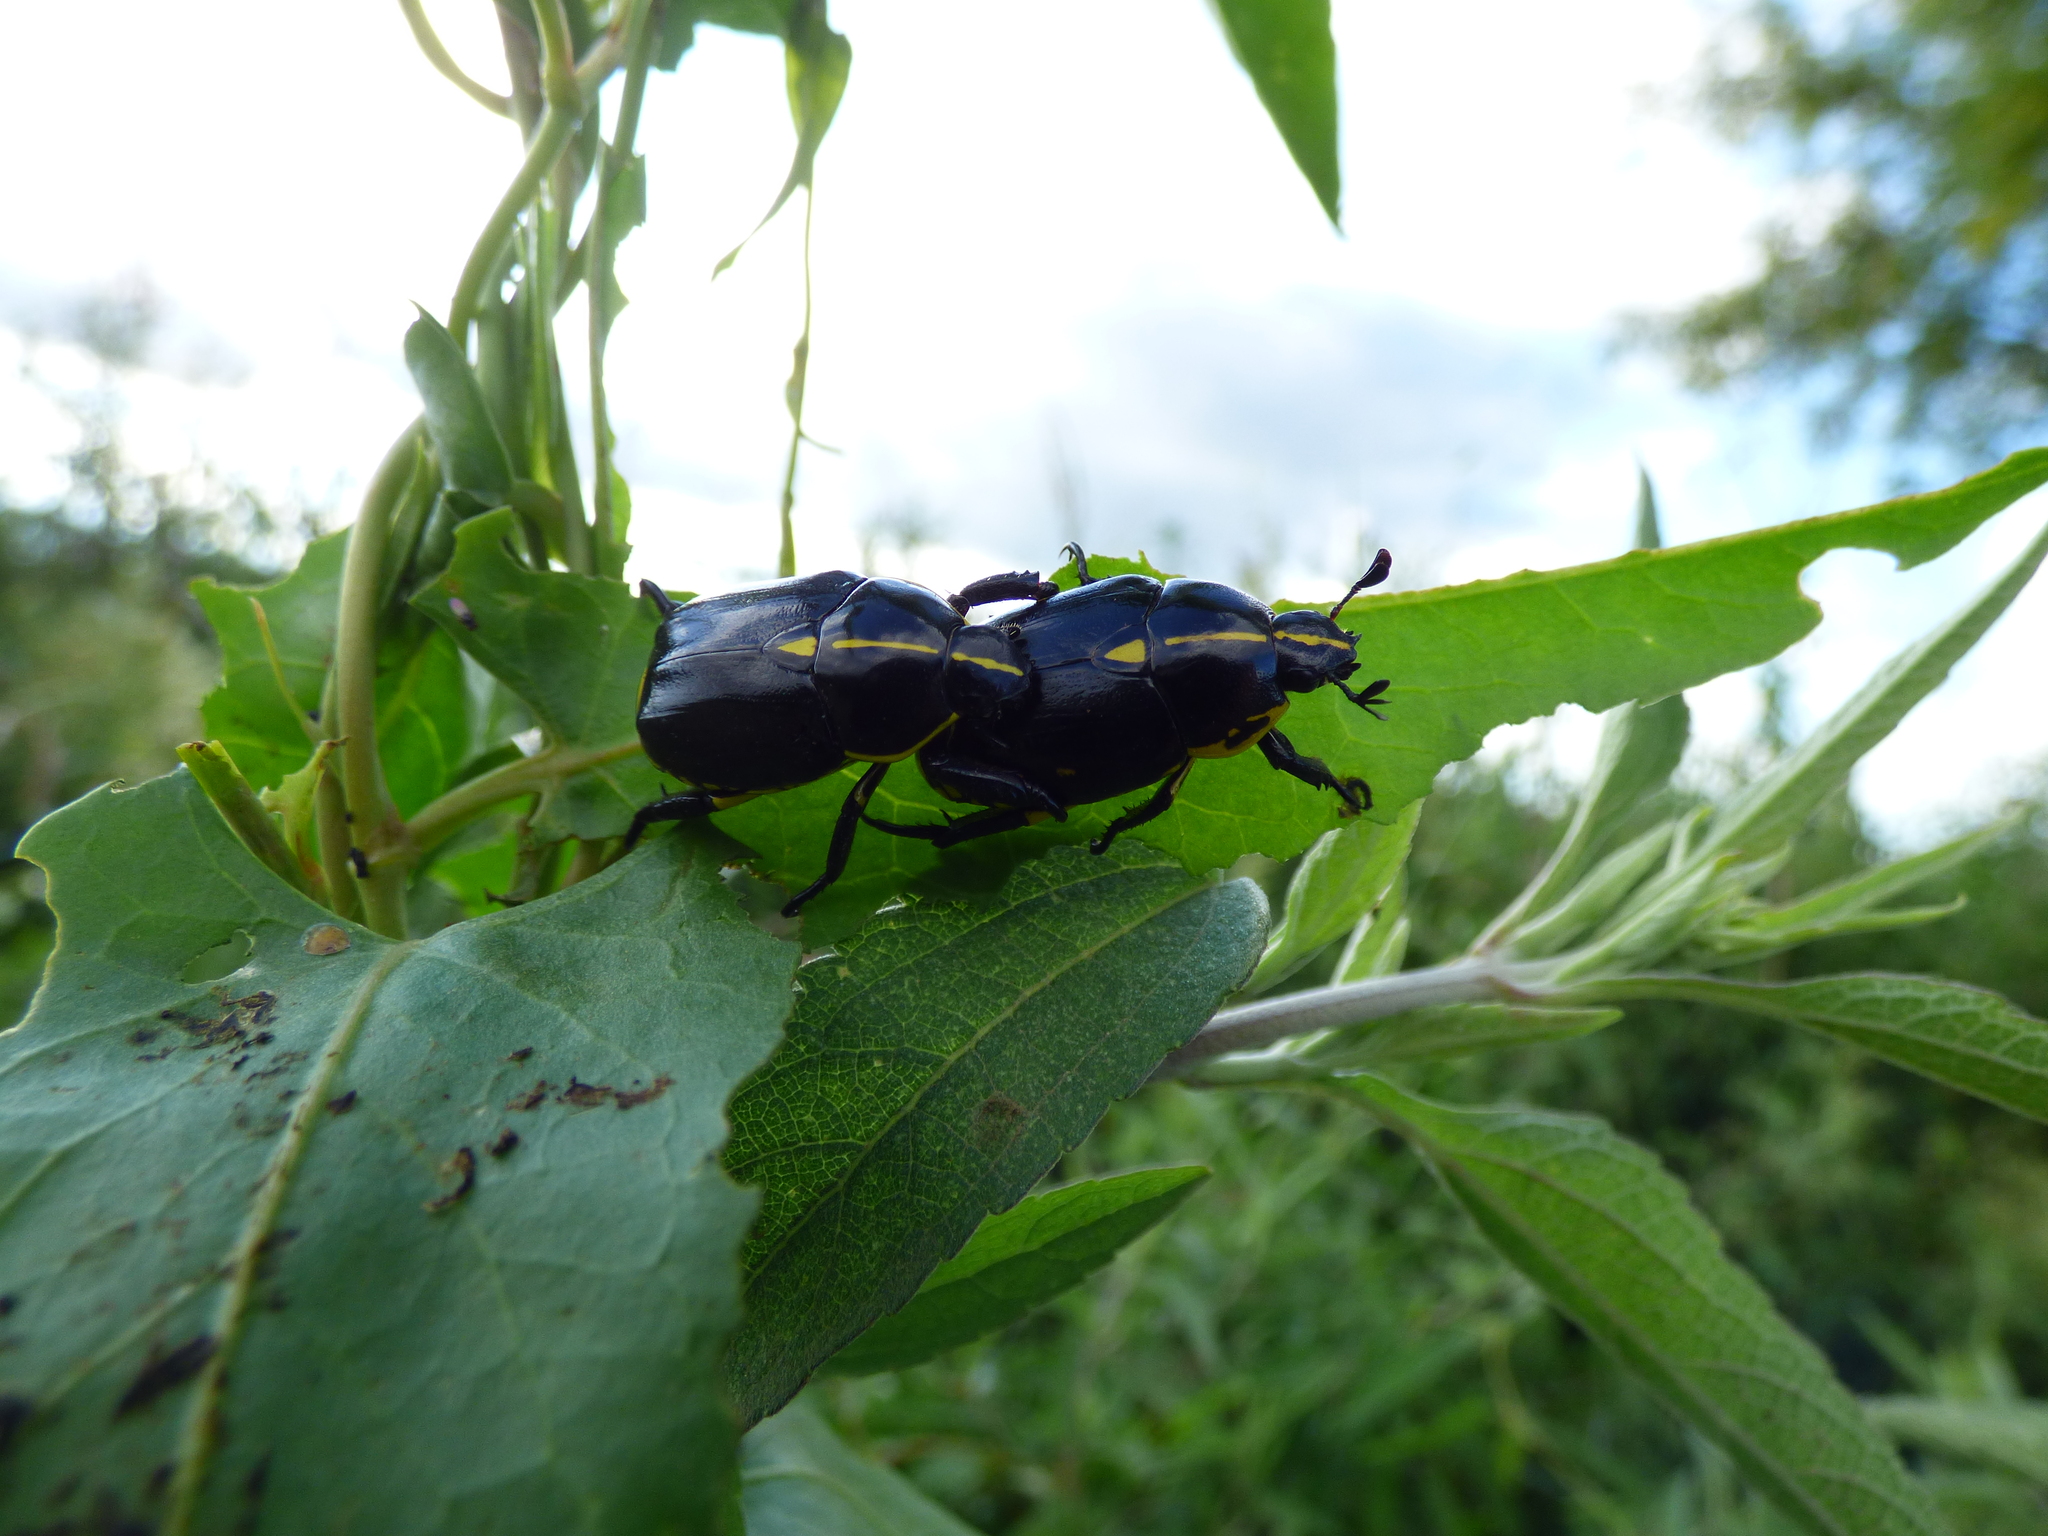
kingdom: Animalia
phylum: Arthropoda
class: Insecta
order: Coleoptera
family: Scarabaeidae
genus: Rutela
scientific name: Rutela lineola
